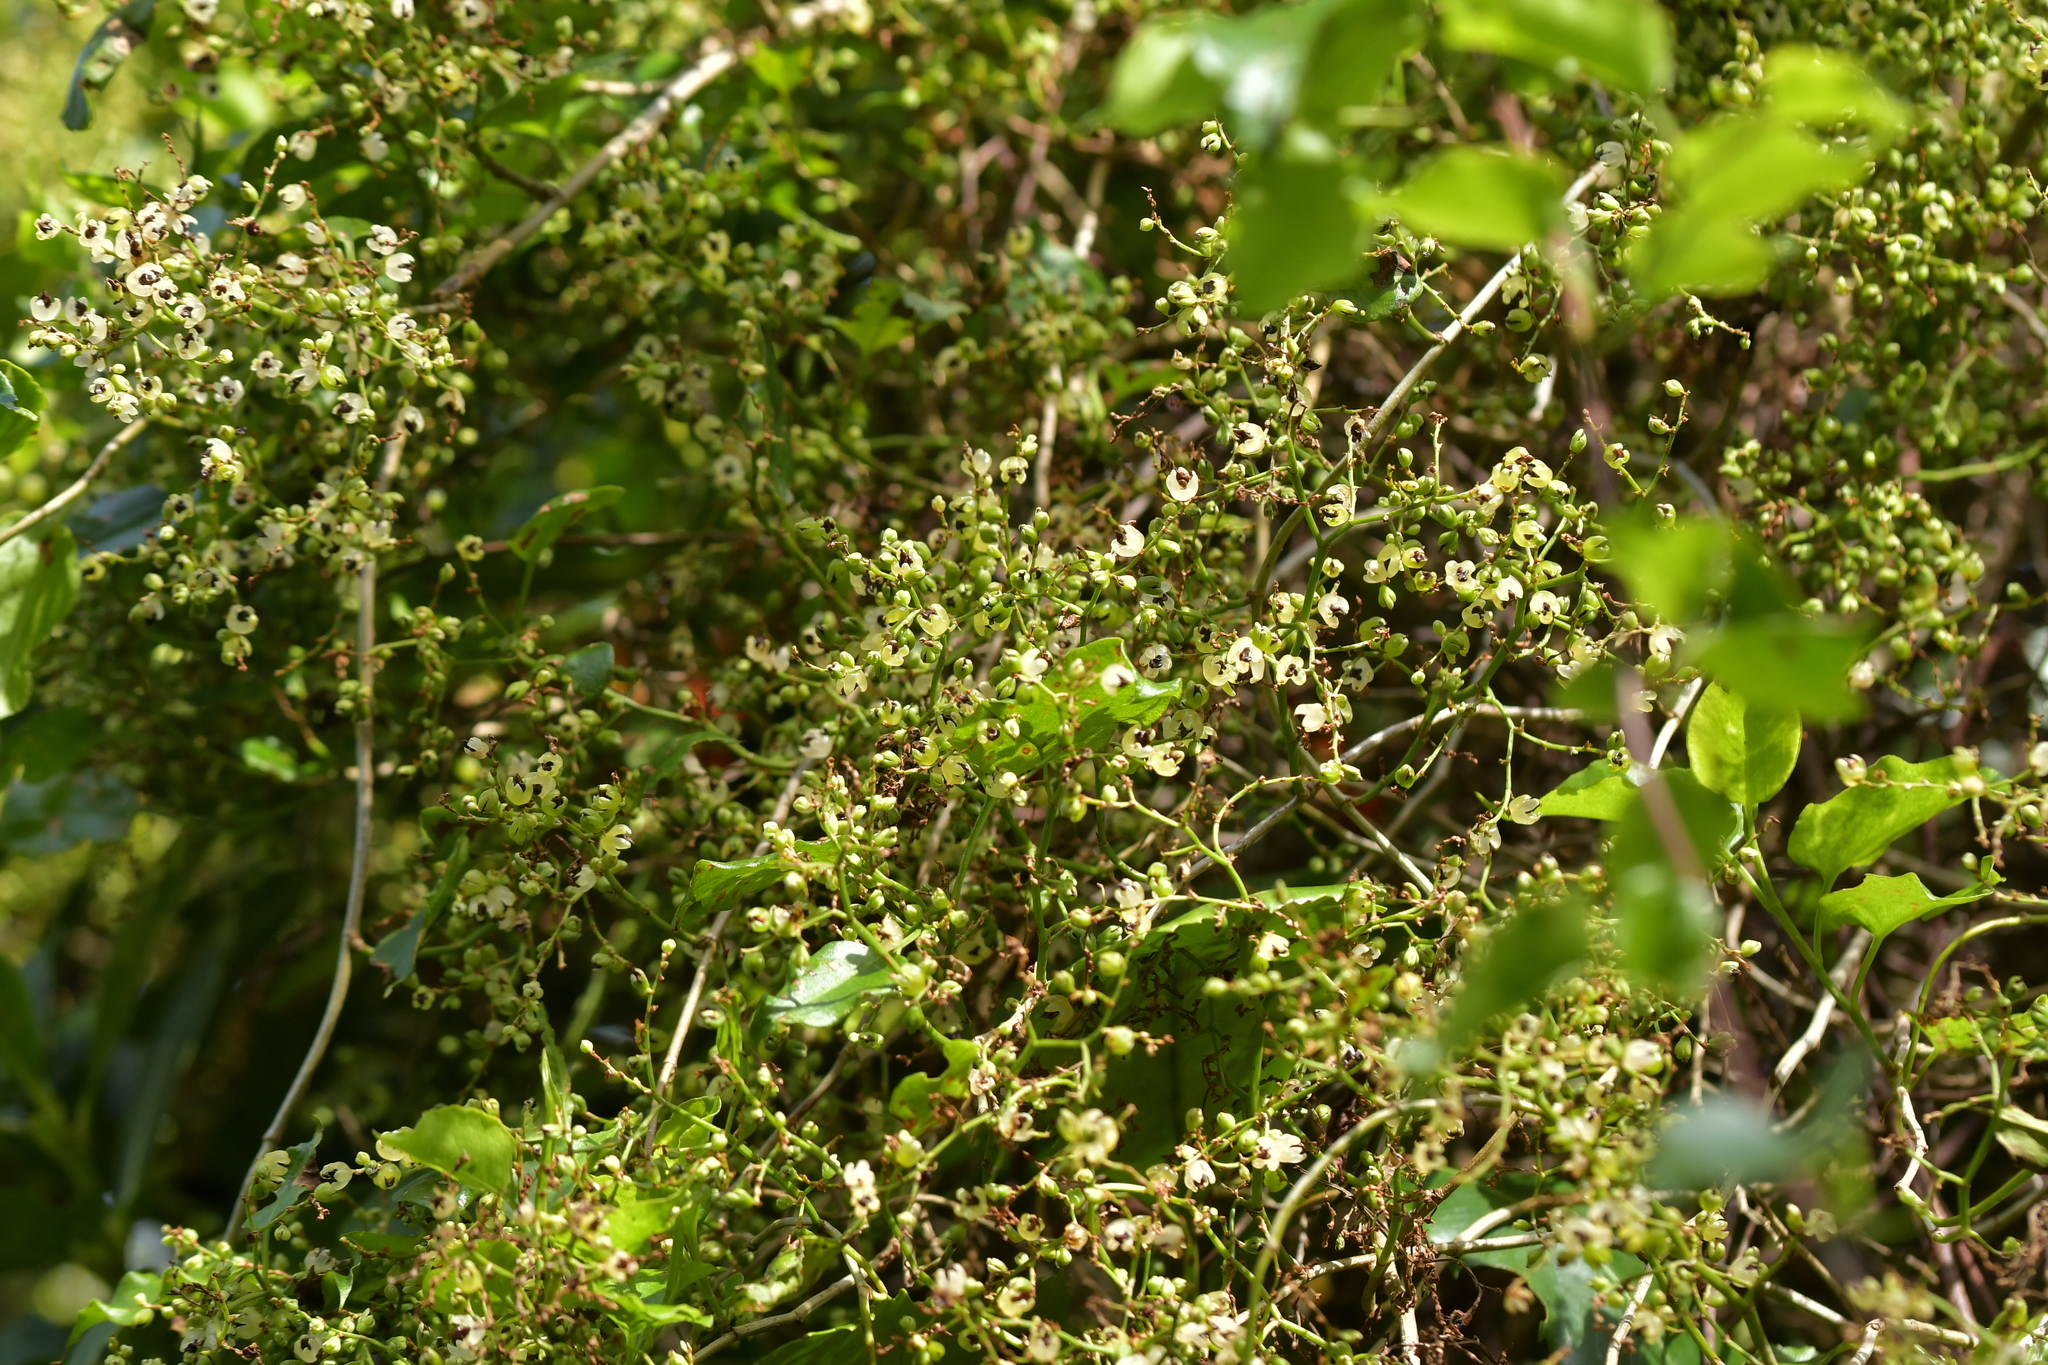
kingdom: Plantae
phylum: Tracheophyta
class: Magnoliopsida
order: Caryophyllales
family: Polygonaceae
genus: Muehlenbeckia
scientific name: Muehlenbeckia australis
